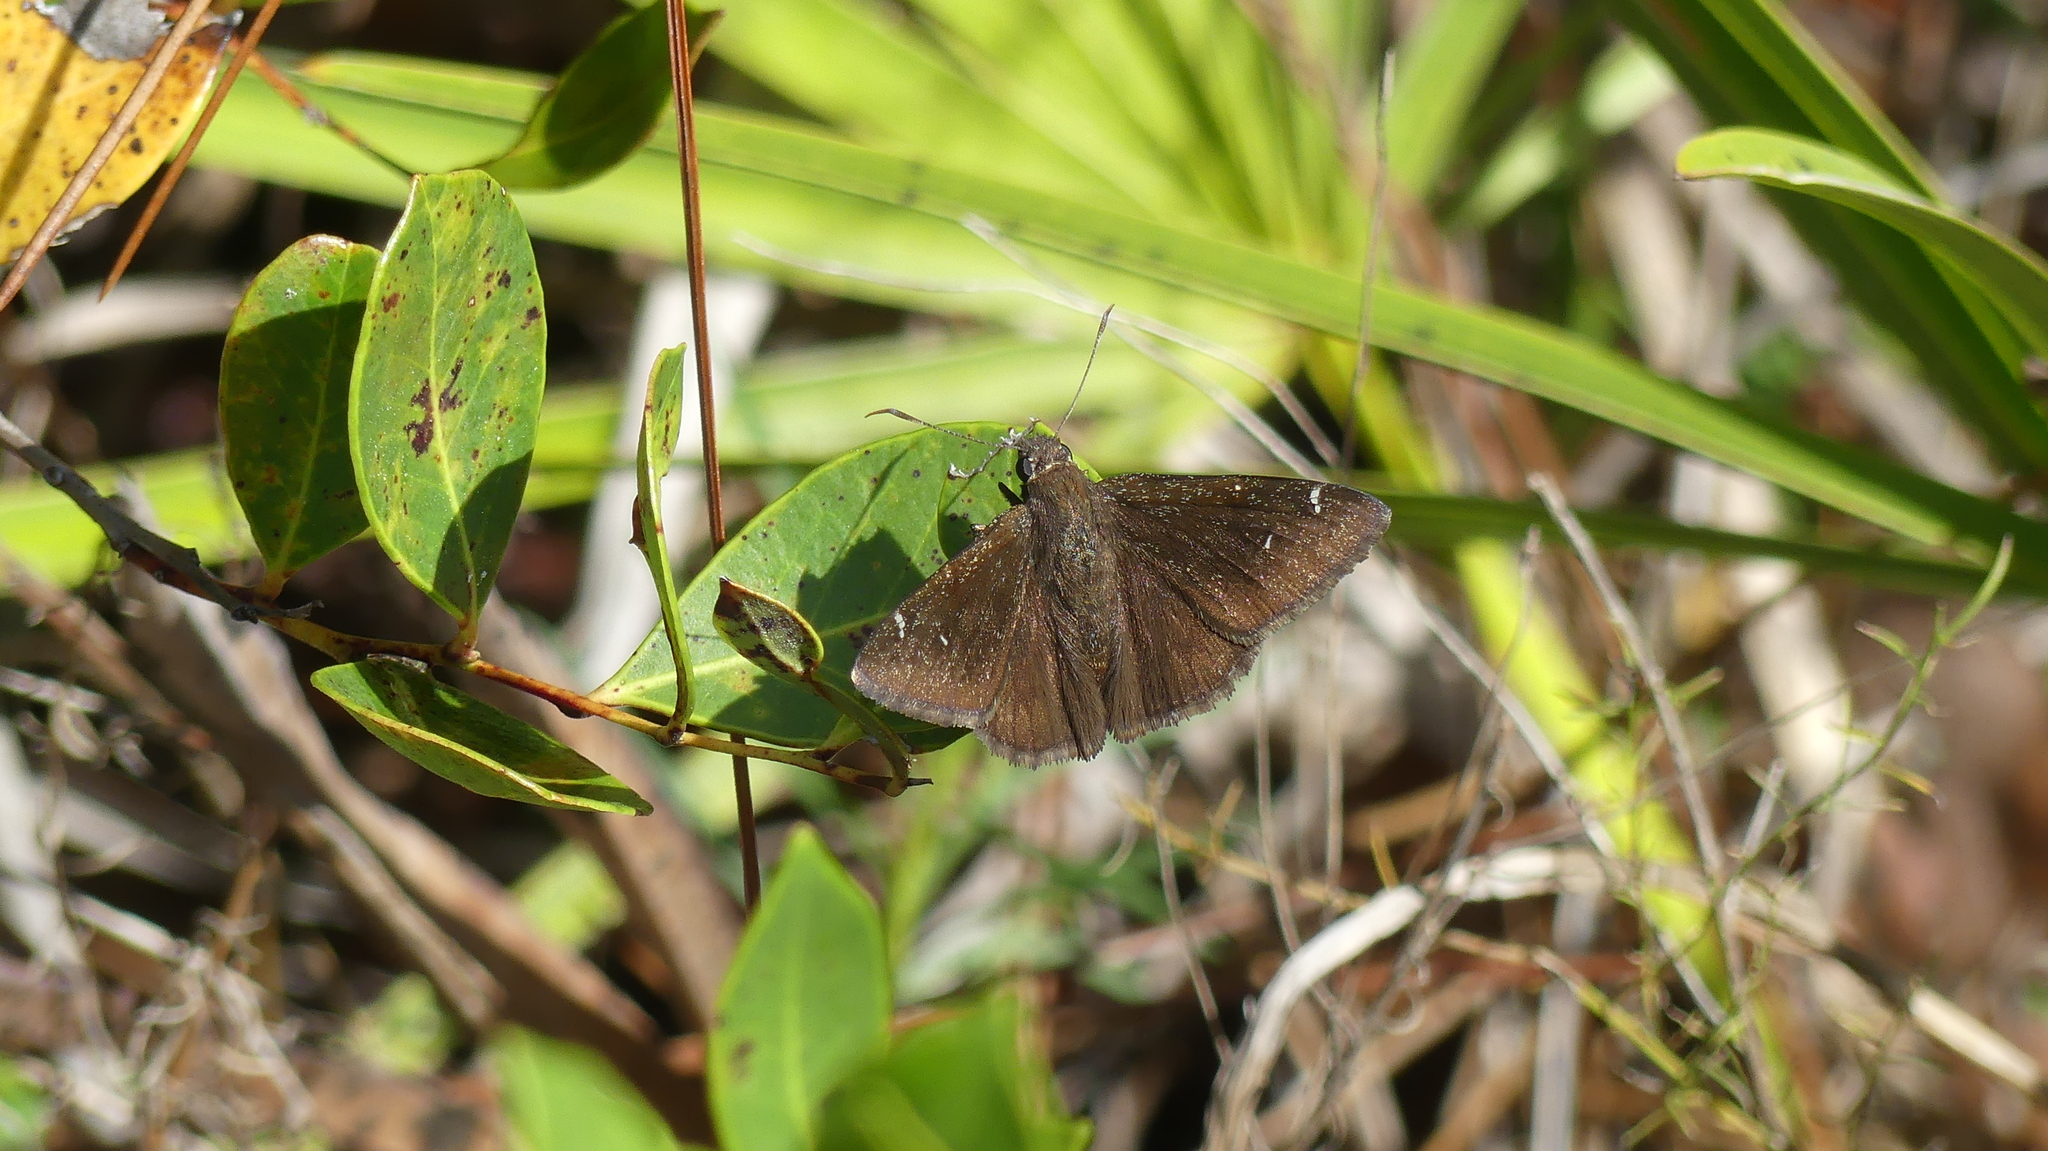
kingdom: Animalia
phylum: Arthropoda
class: Insecta
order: Lepidoptera
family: Hesperiidae
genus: Thorybes
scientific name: Thorybes pylades
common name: Northern cloudywing
